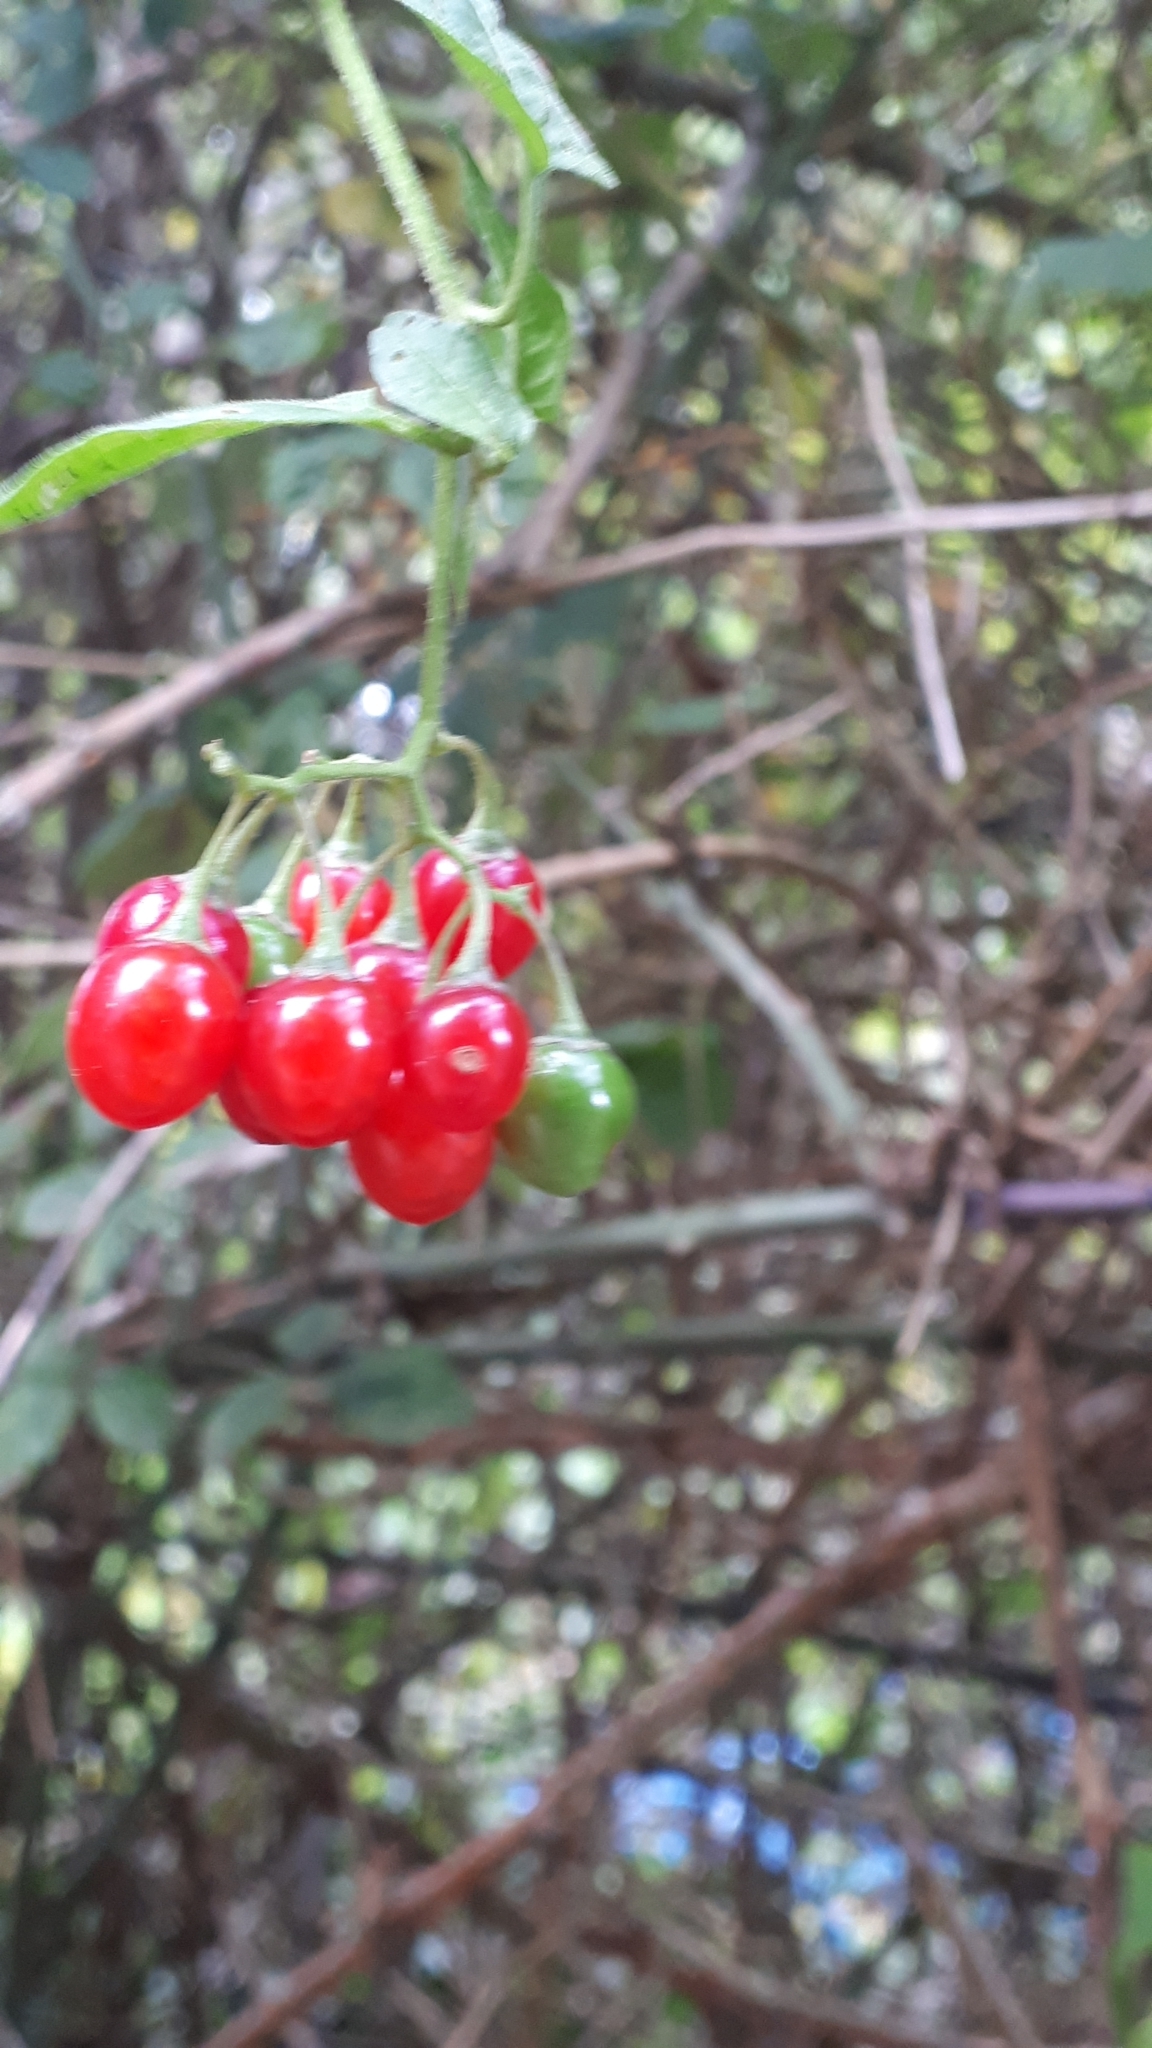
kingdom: Plantae
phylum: Tracheophyta
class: Magnoliopsida
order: Solanales
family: Solanaceae
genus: Solanum
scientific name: Solanum dulcamara
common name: Climbing nightshade
